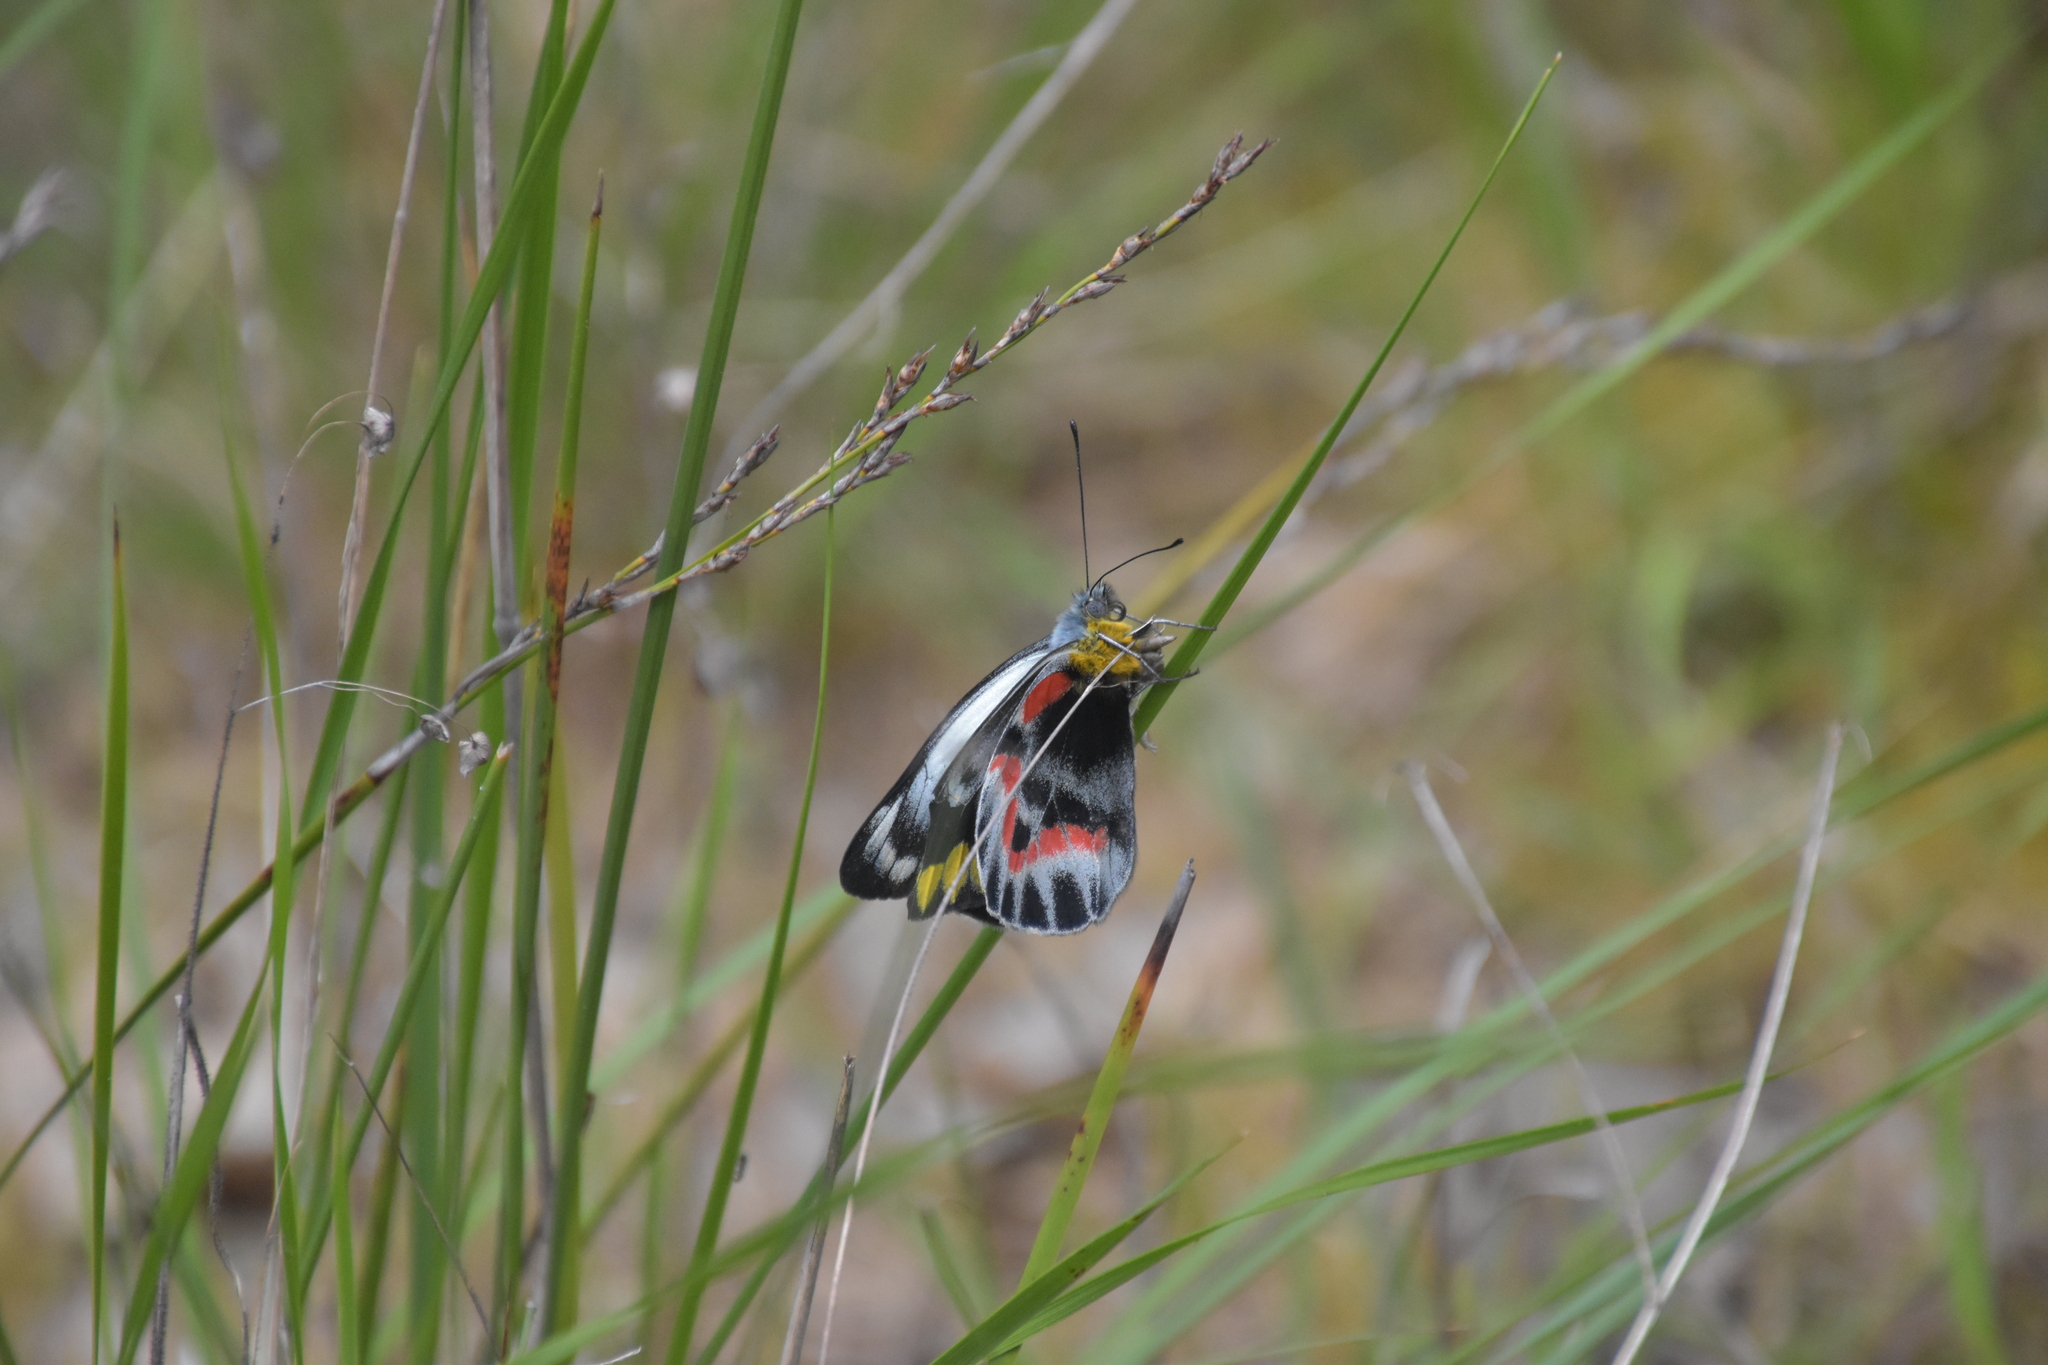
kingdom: Animalia
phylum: Arthropoda
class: Insecta
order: Lepidoptera
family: Pieridae
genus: Delias
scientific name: Delias harpalyce
